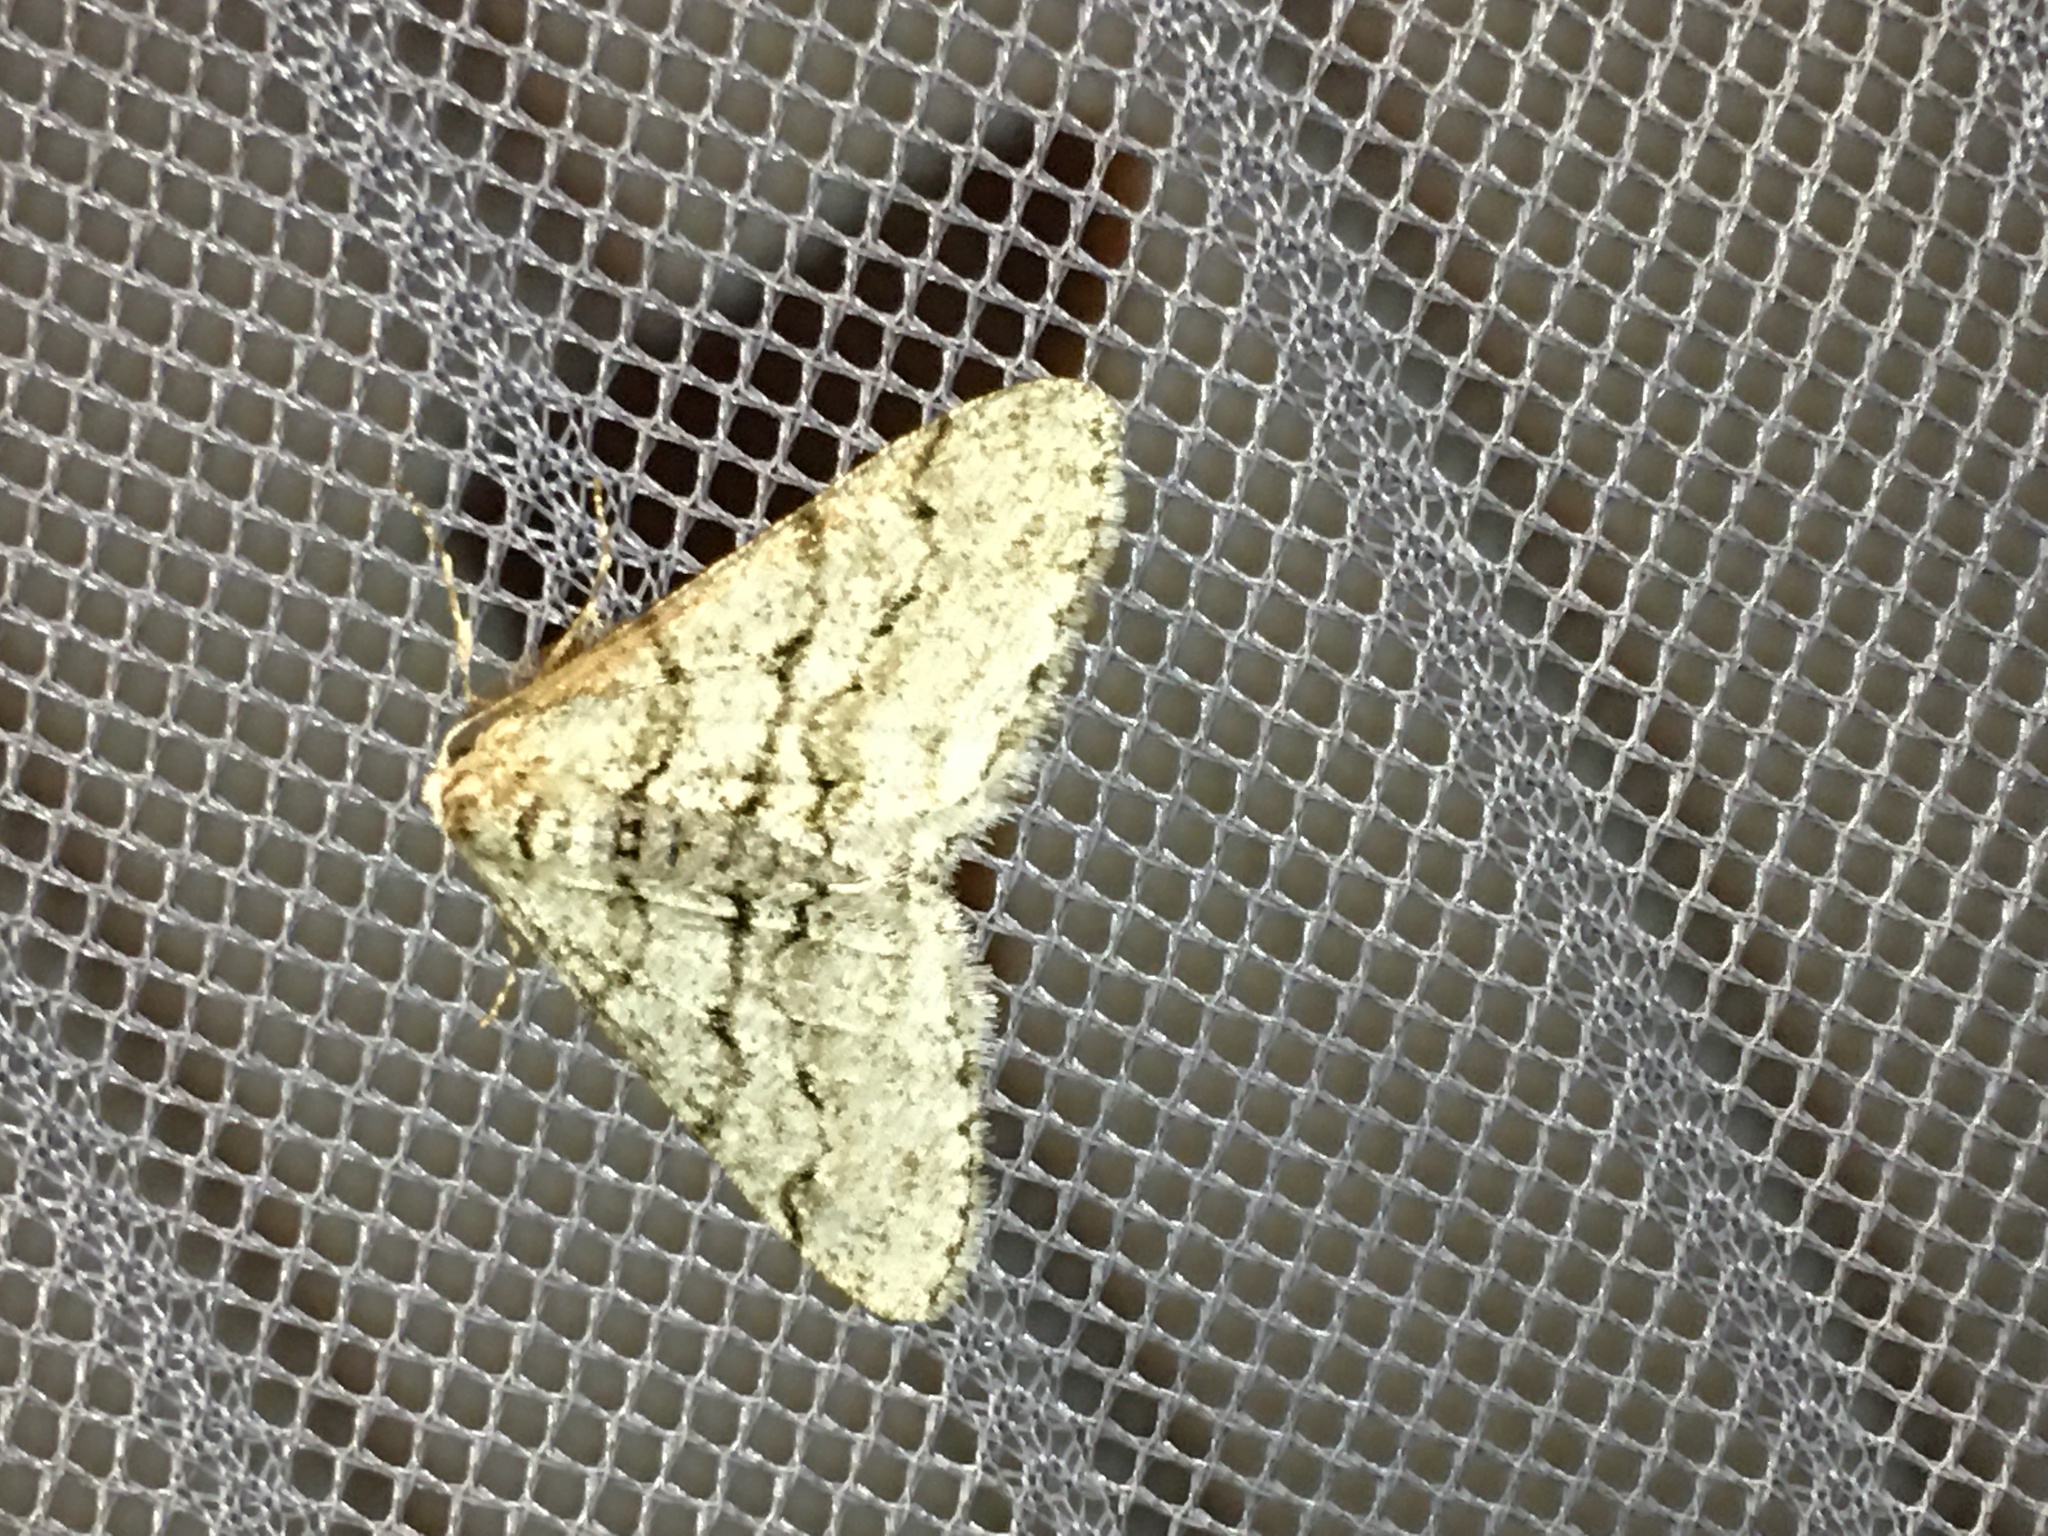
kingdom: Animalia
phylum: Arthropoda
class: Insecta
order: Lepidoptera
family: Geometridae
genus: Phigalia
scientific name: Phigalia strigataria
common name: Small phigalia
